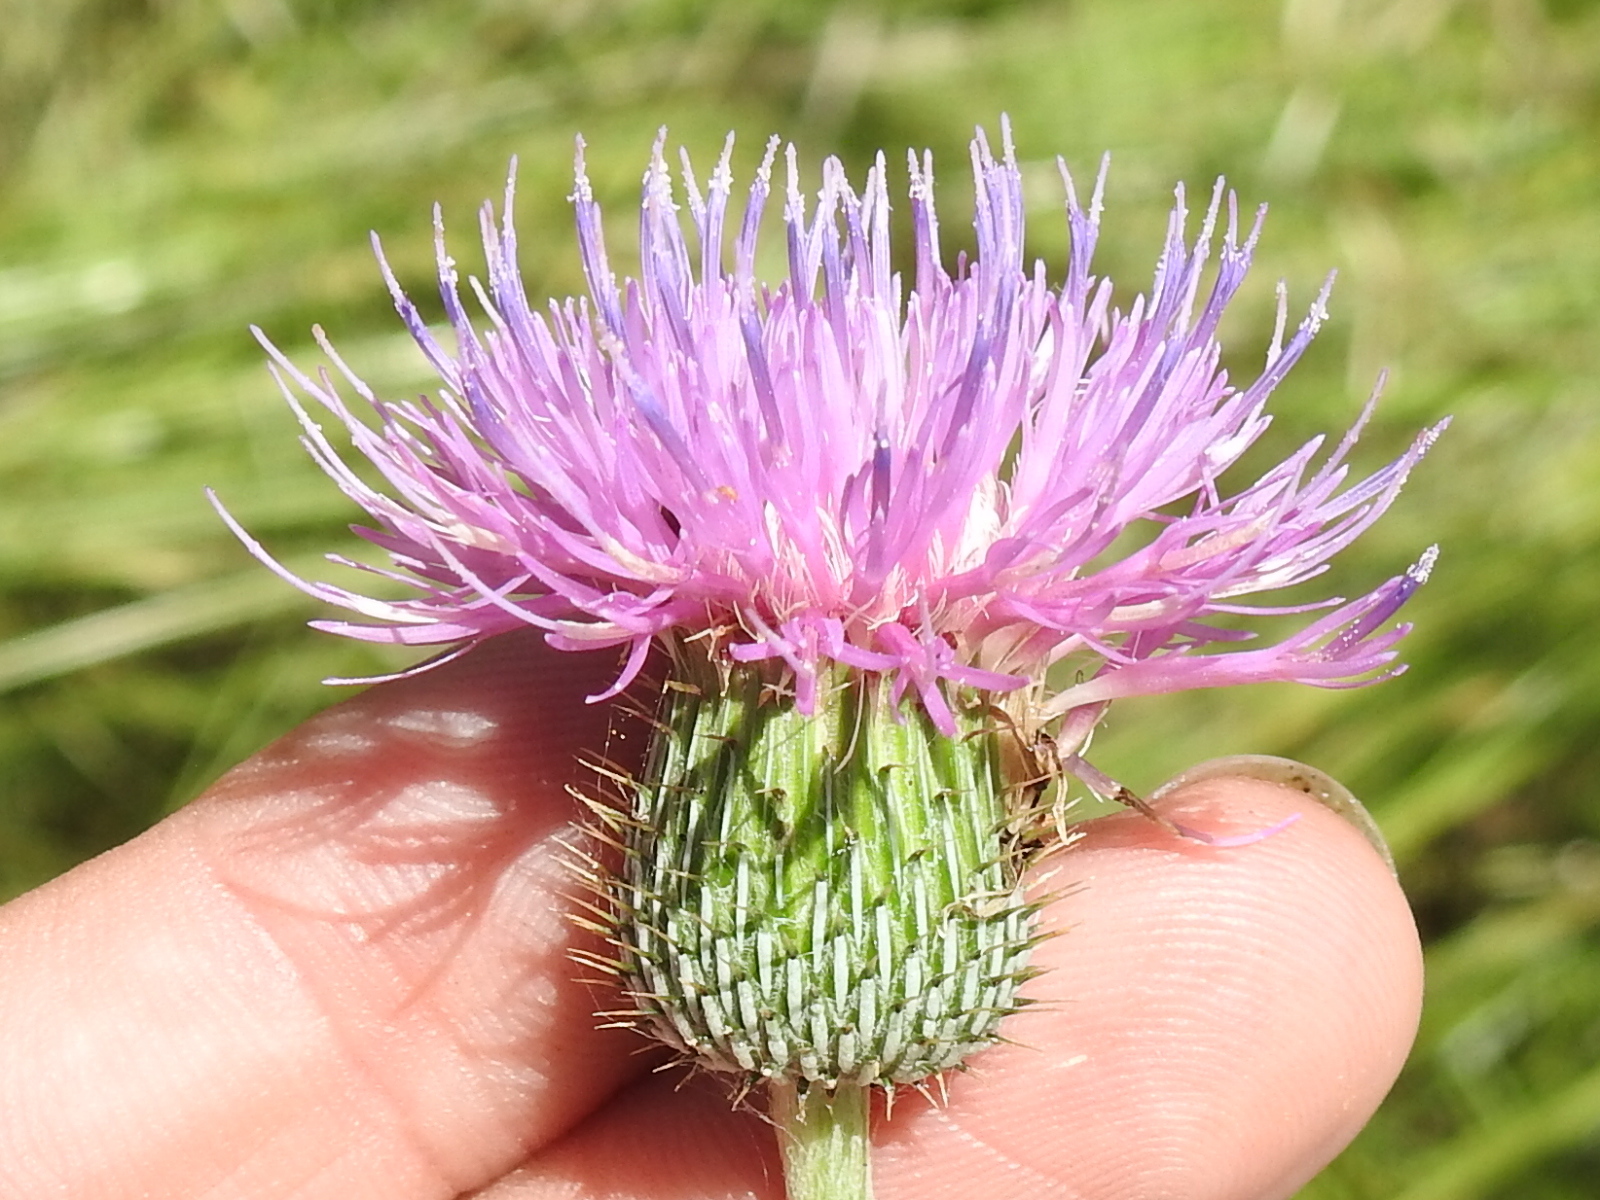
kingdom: Plantae
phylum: Tracheophyta
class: Magnoliopsida
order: Asterales
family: Asteraceae
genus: Cirsium
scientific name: Cirsium texanum
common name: Texas purple thistle
